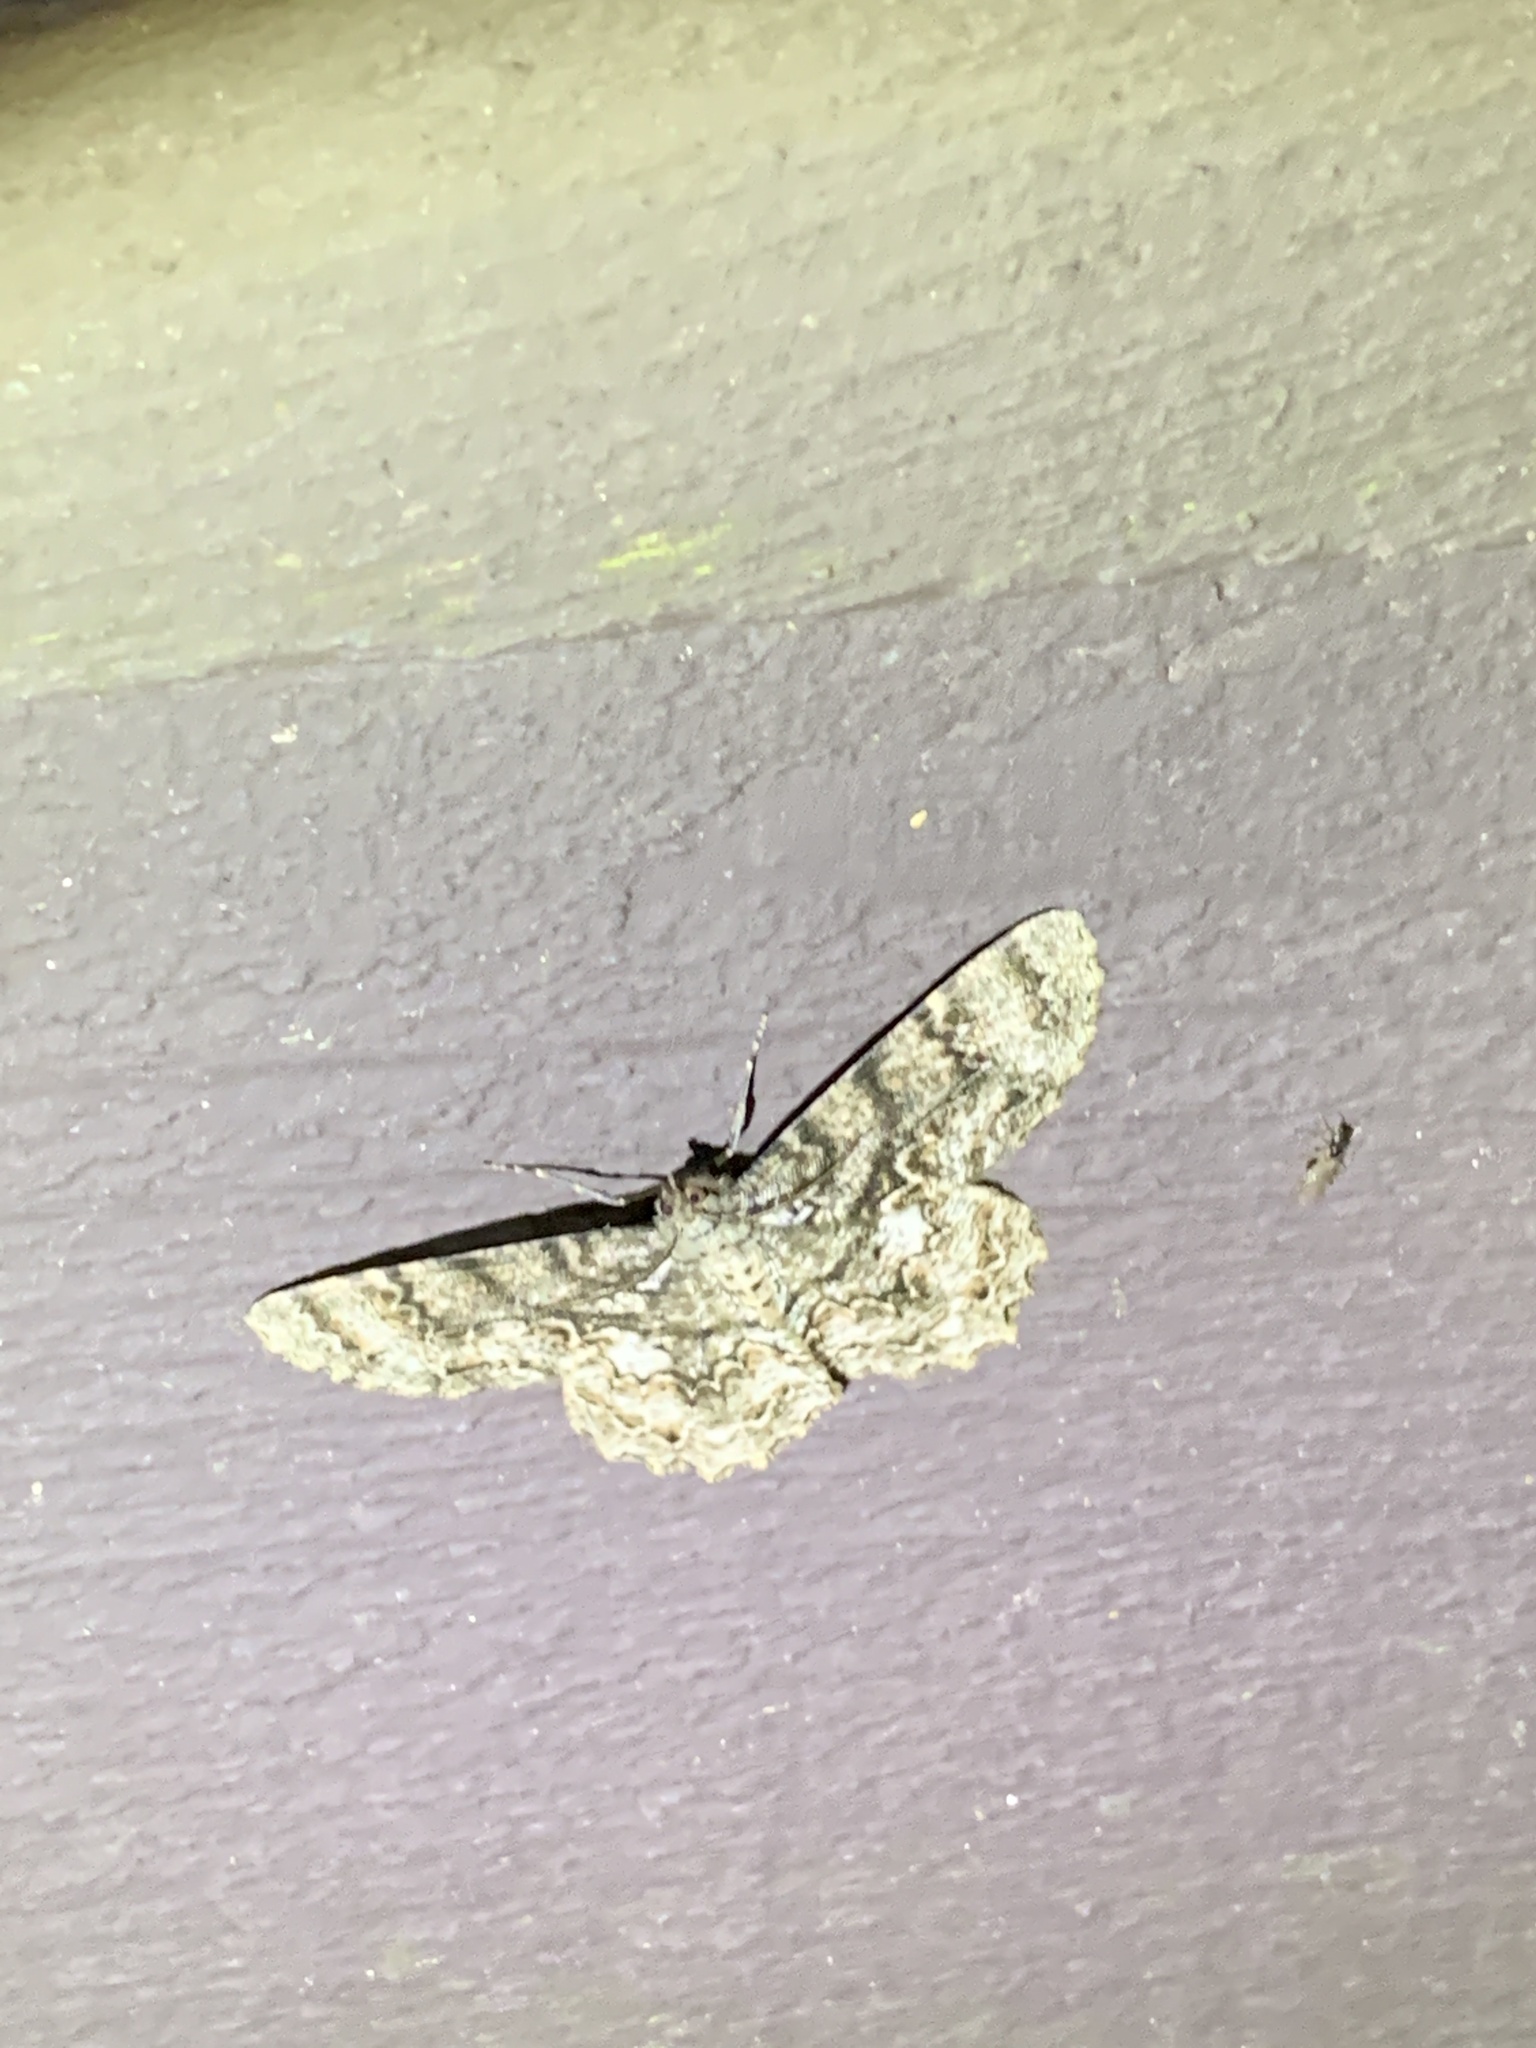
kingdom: Animalia
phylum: Arthropoda
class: Insecta
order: Lepidoptera
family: Geometridae
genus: Epimecis
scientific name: Epimecis hortaria
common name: Tulip-tree beauty
